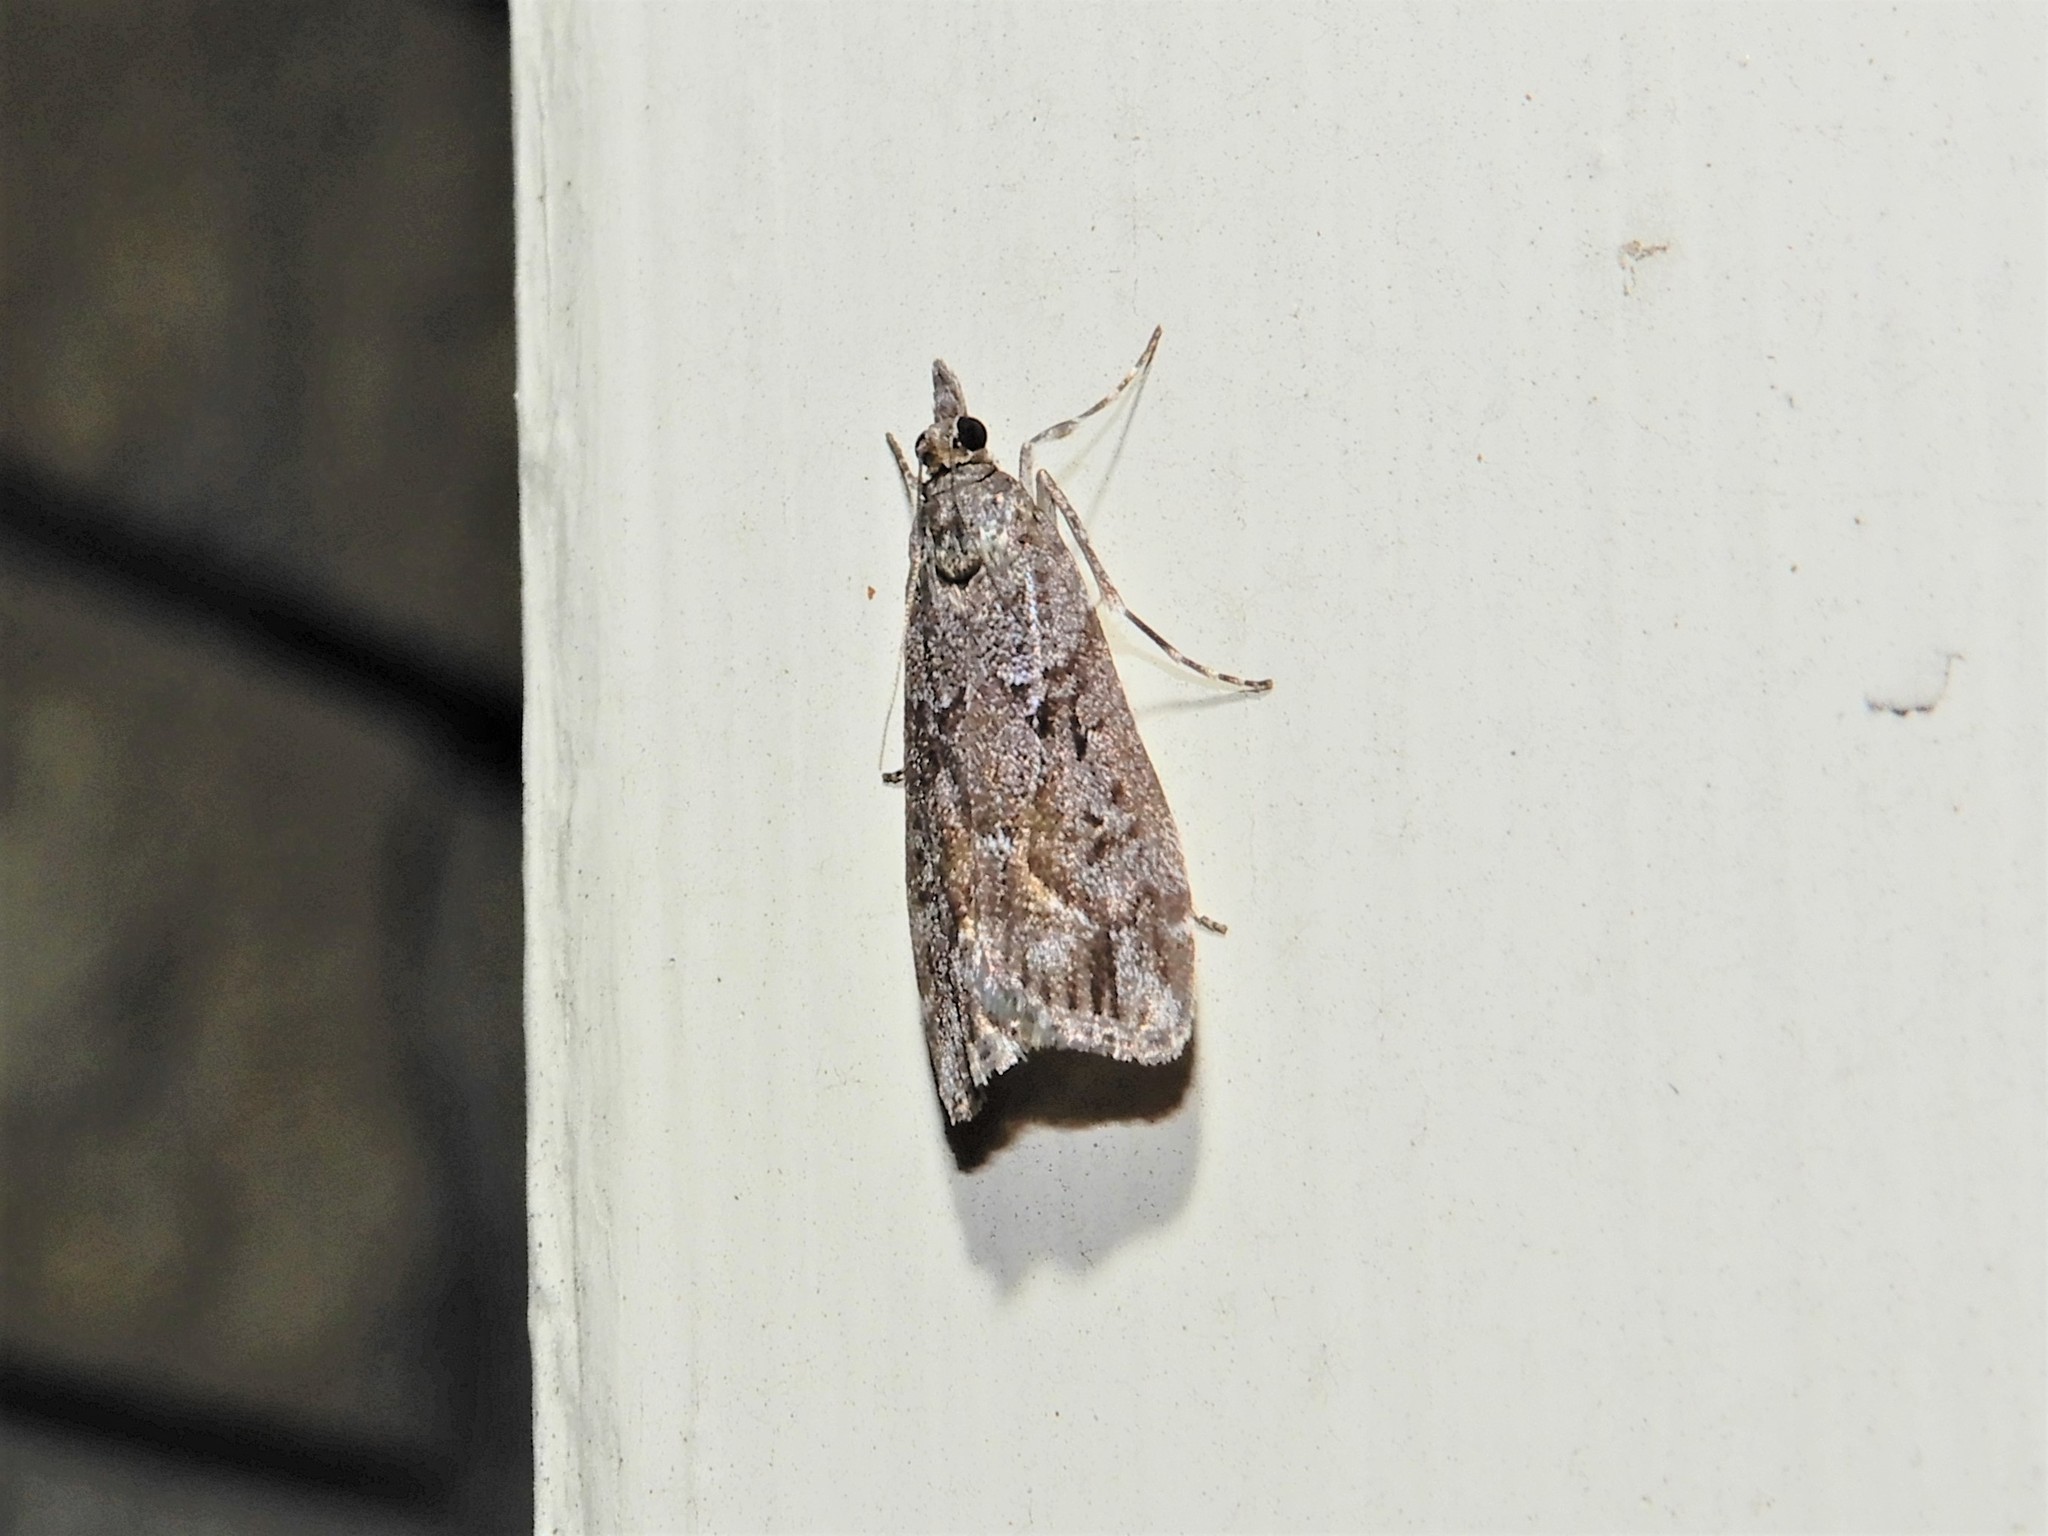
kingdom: Animalia
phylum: Arthropoda
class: Insecta
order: Lepidoptera
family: Crambidae
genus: Eudonia
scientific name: Eudonia submarginalis
